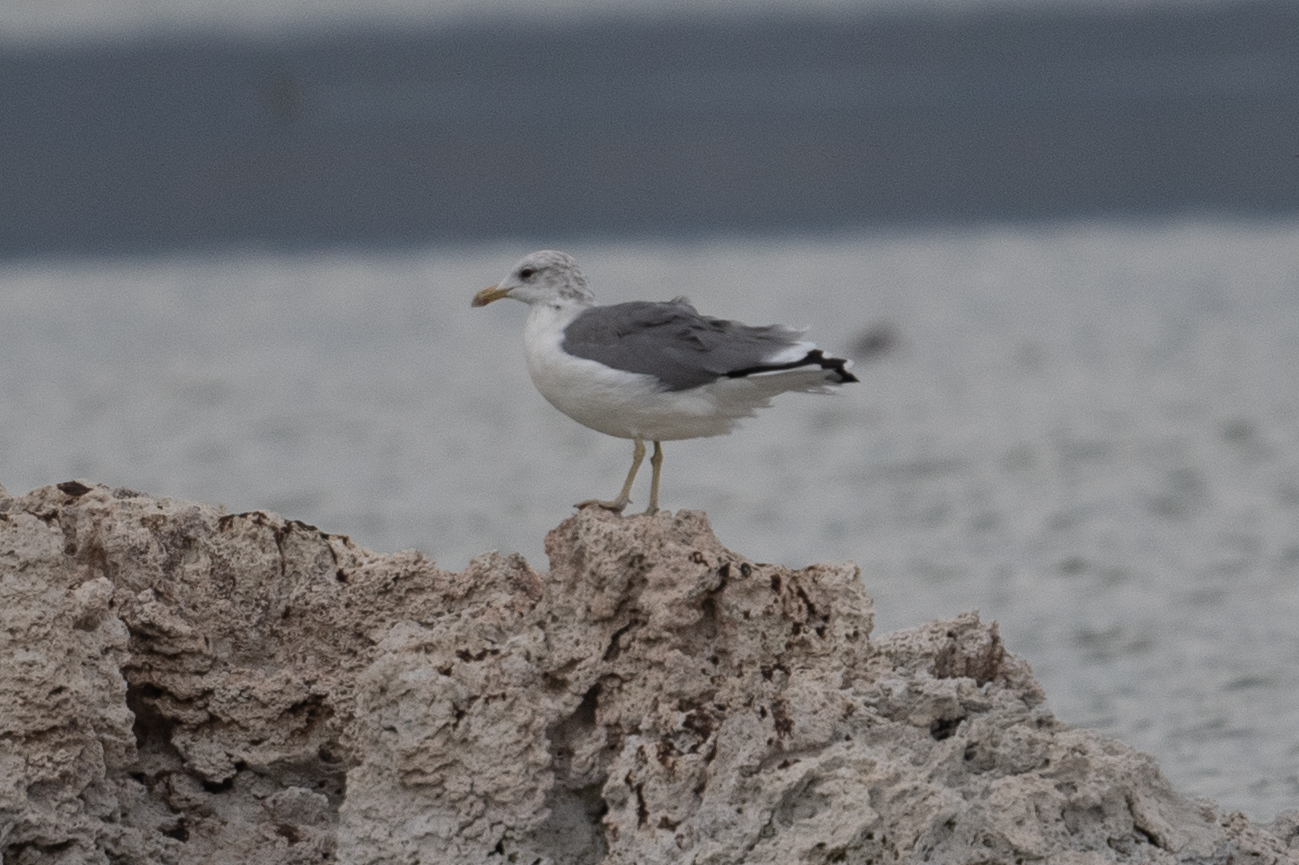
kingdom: Animalia
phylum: Chordata
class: Aves
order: Charadriiformes
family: Laridae
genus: Larus
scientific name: Larus californicus
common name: California gull
